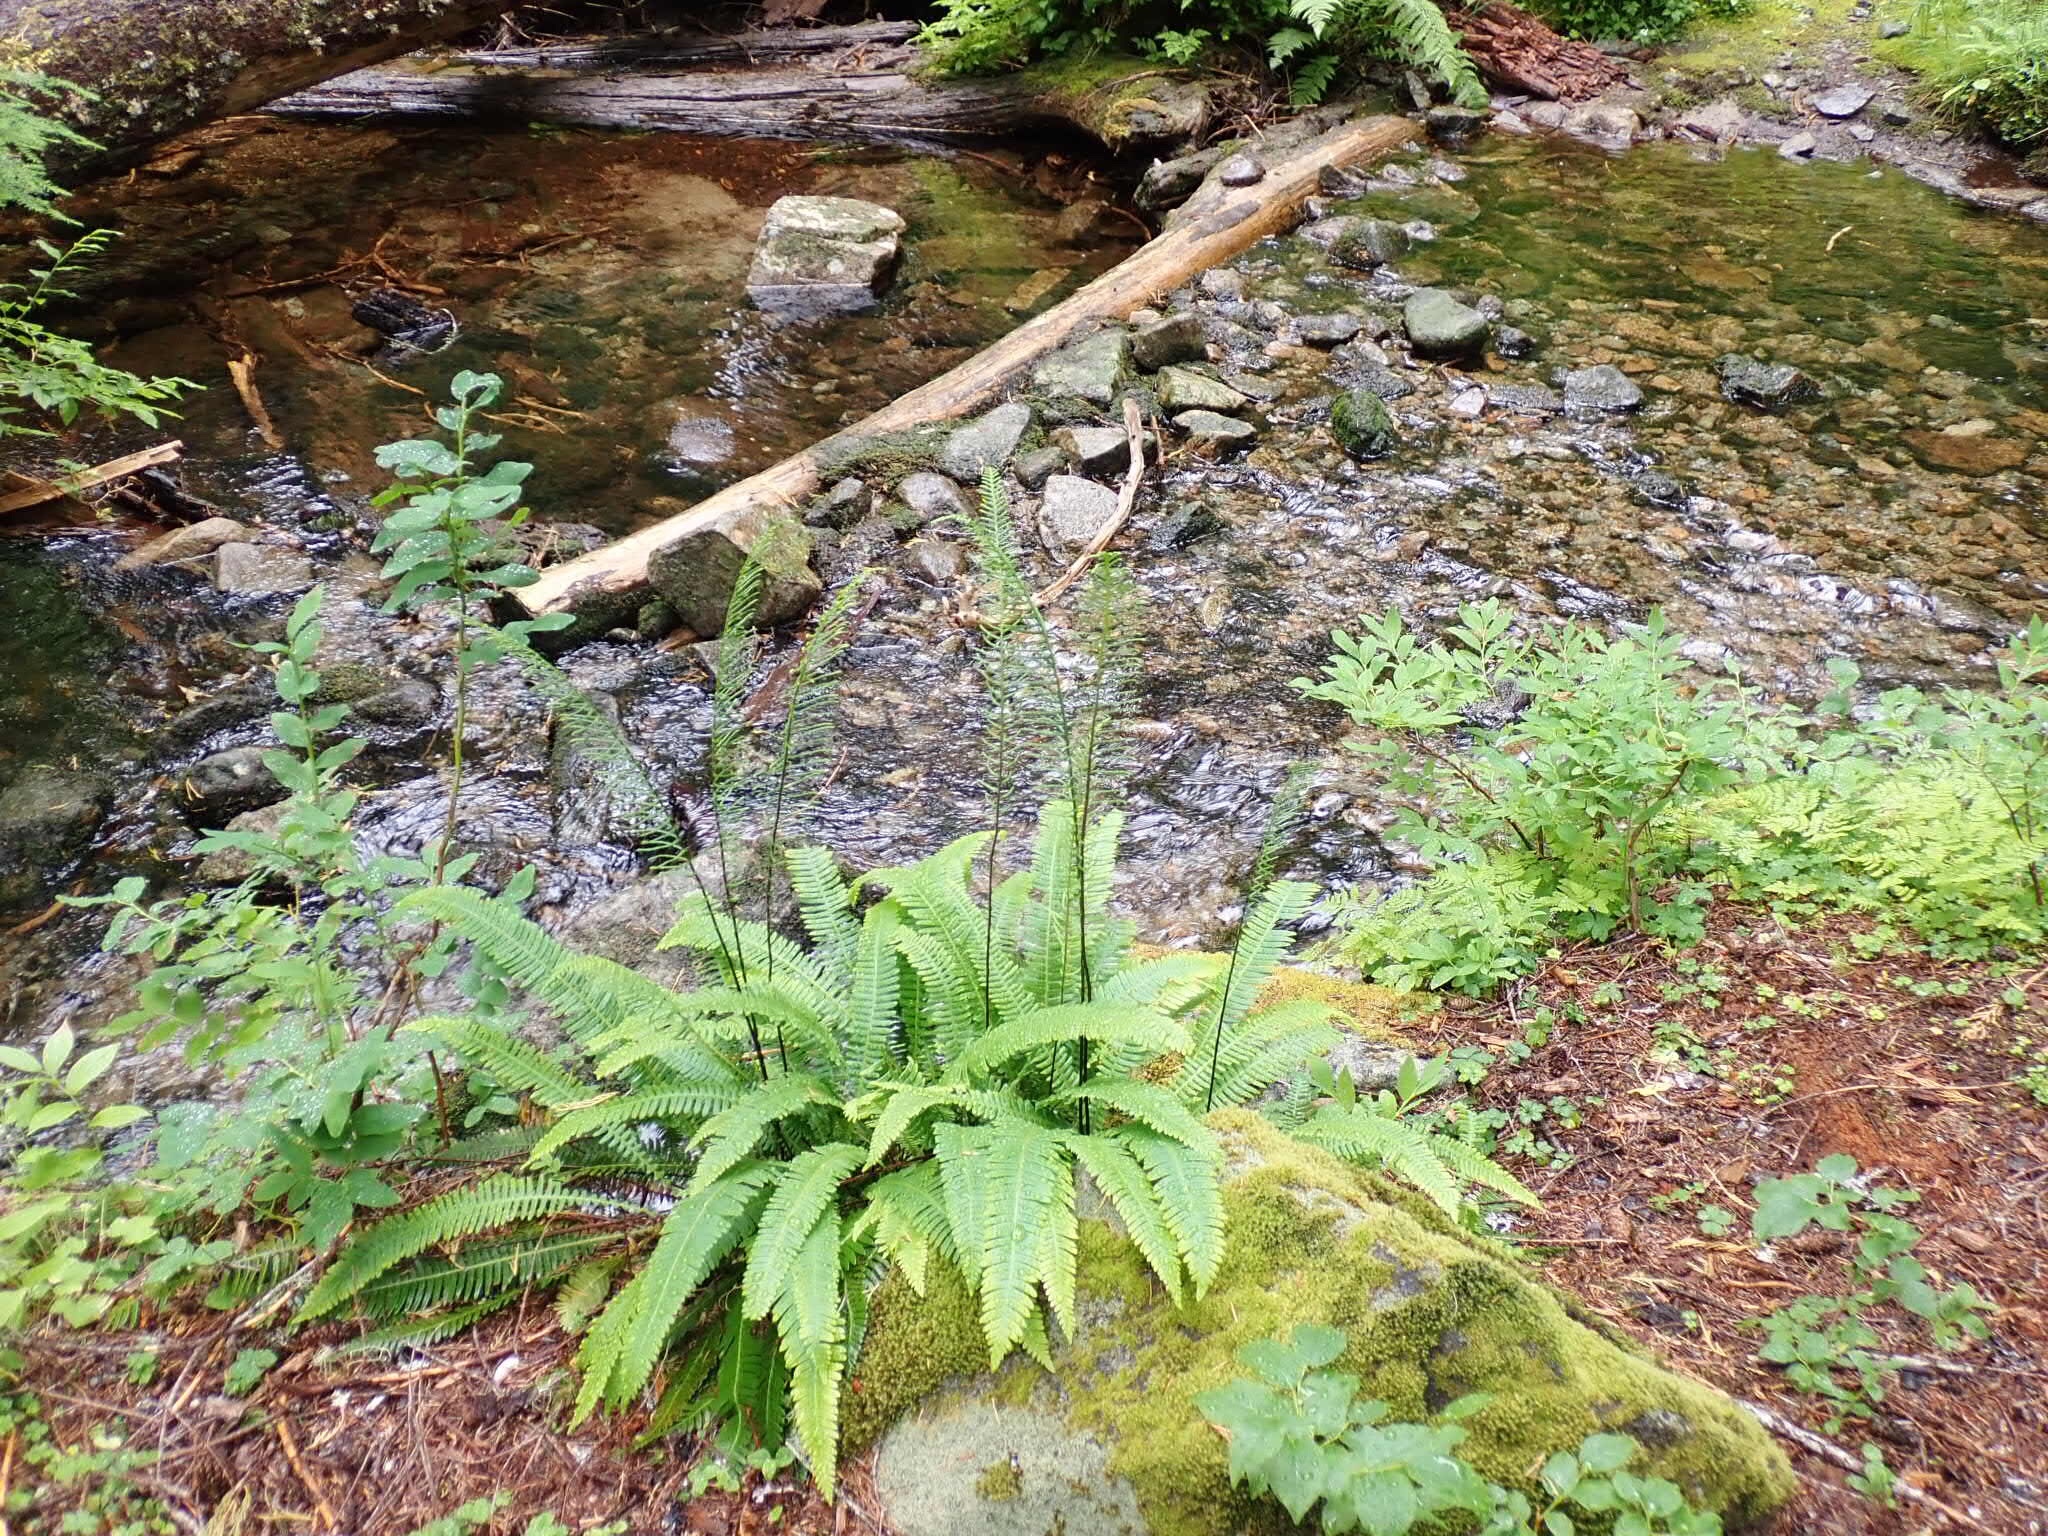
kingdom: Plantae
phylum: Tracheophyta
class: Polypodiopsida
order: Polypodiales
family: Blechnaceae
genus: Struthiopteris
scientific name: Struthiopteris spicant
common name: Deer fern
